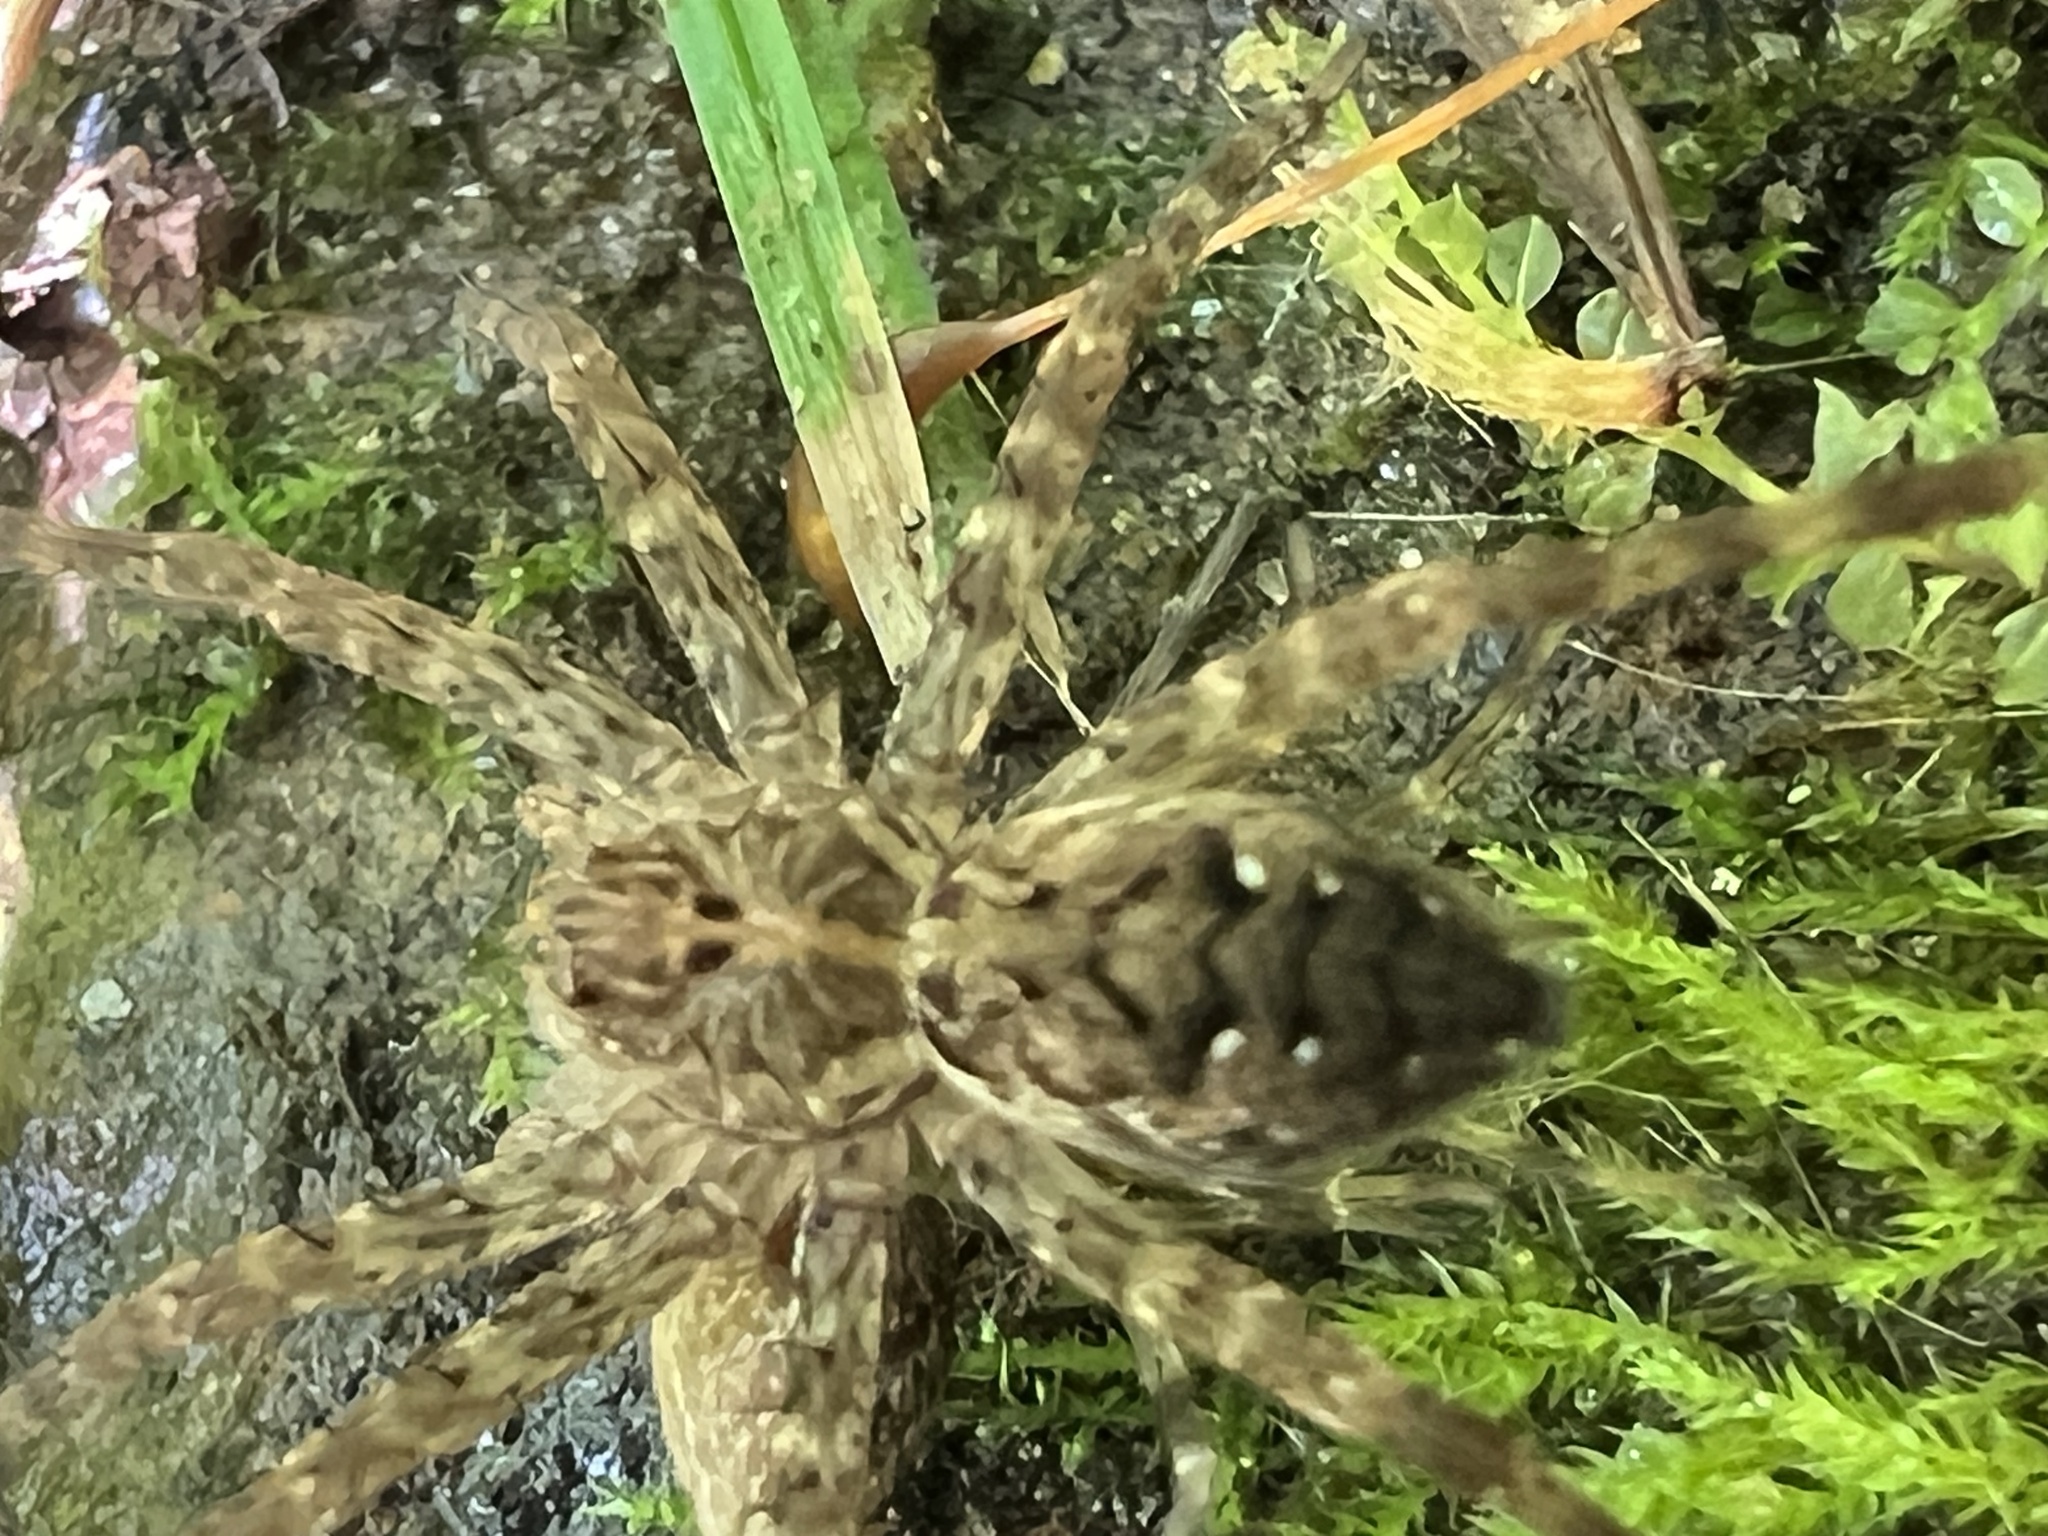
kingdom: Animalia
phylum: Arthropoda
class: Arachnida
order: Araneae
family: Pisauridae
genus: Dolomedes
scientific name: Dolomedes vittatus
